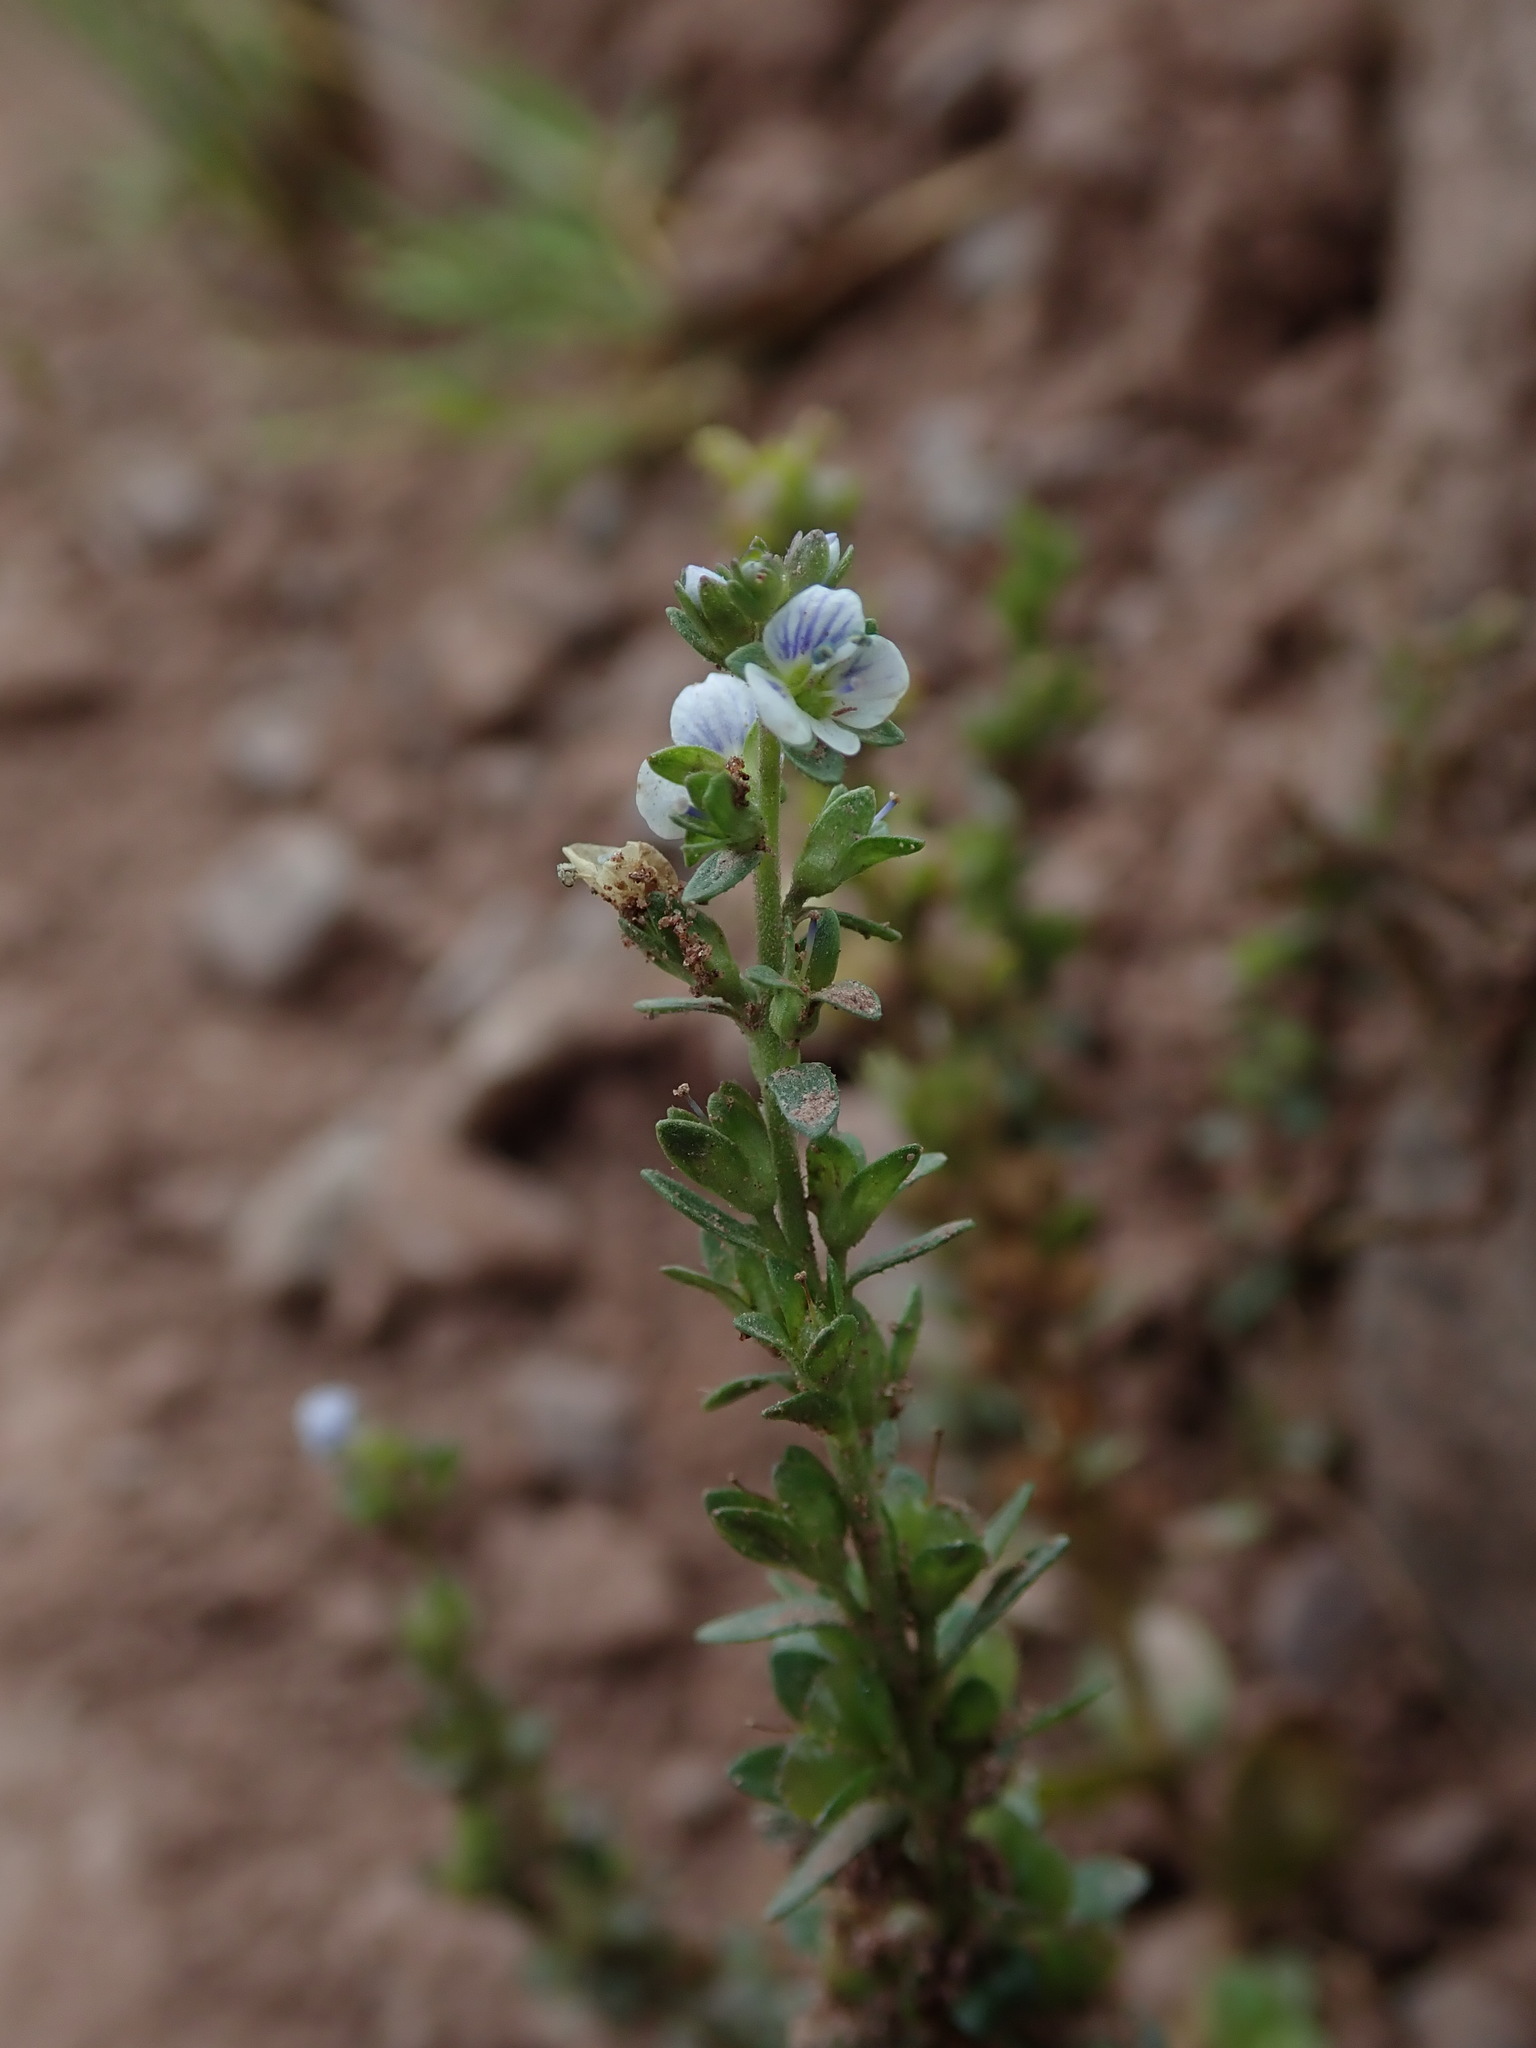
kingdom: Plantae
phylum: Tracheophyta
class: Magnoliopsida
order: Lamiales
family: Plantaginaceae
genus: Veronica
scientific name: Veronica serpyllifolia
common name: Thyme-leaved speedwell
